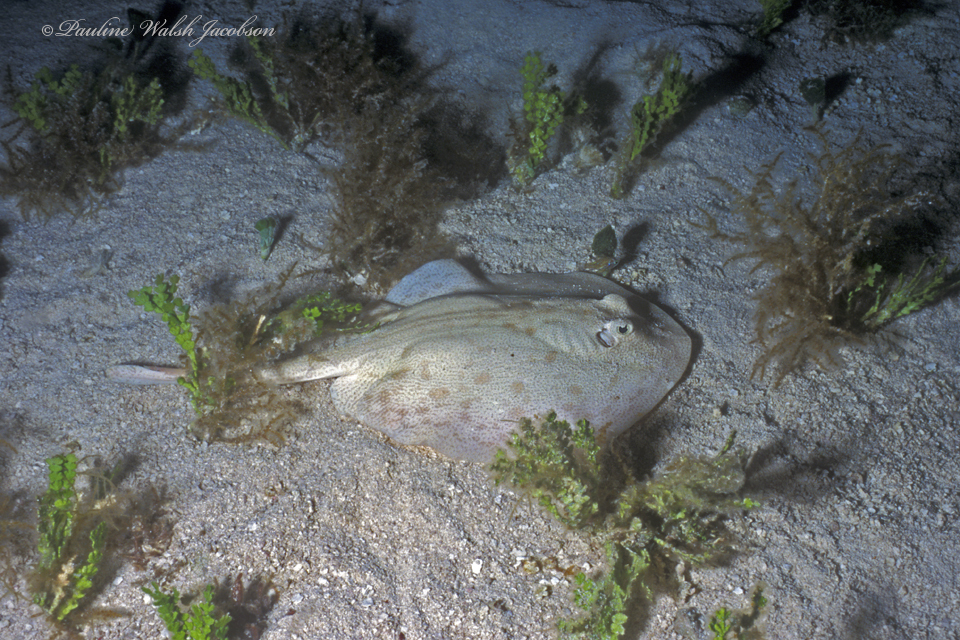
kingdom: Animalia
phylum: Chordata
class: Elasmobranchii
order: Myliobatiformes
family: Urotrygonidae
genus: Urobatis
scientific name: Urobatis jamaicensis
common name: Yellow stingray
